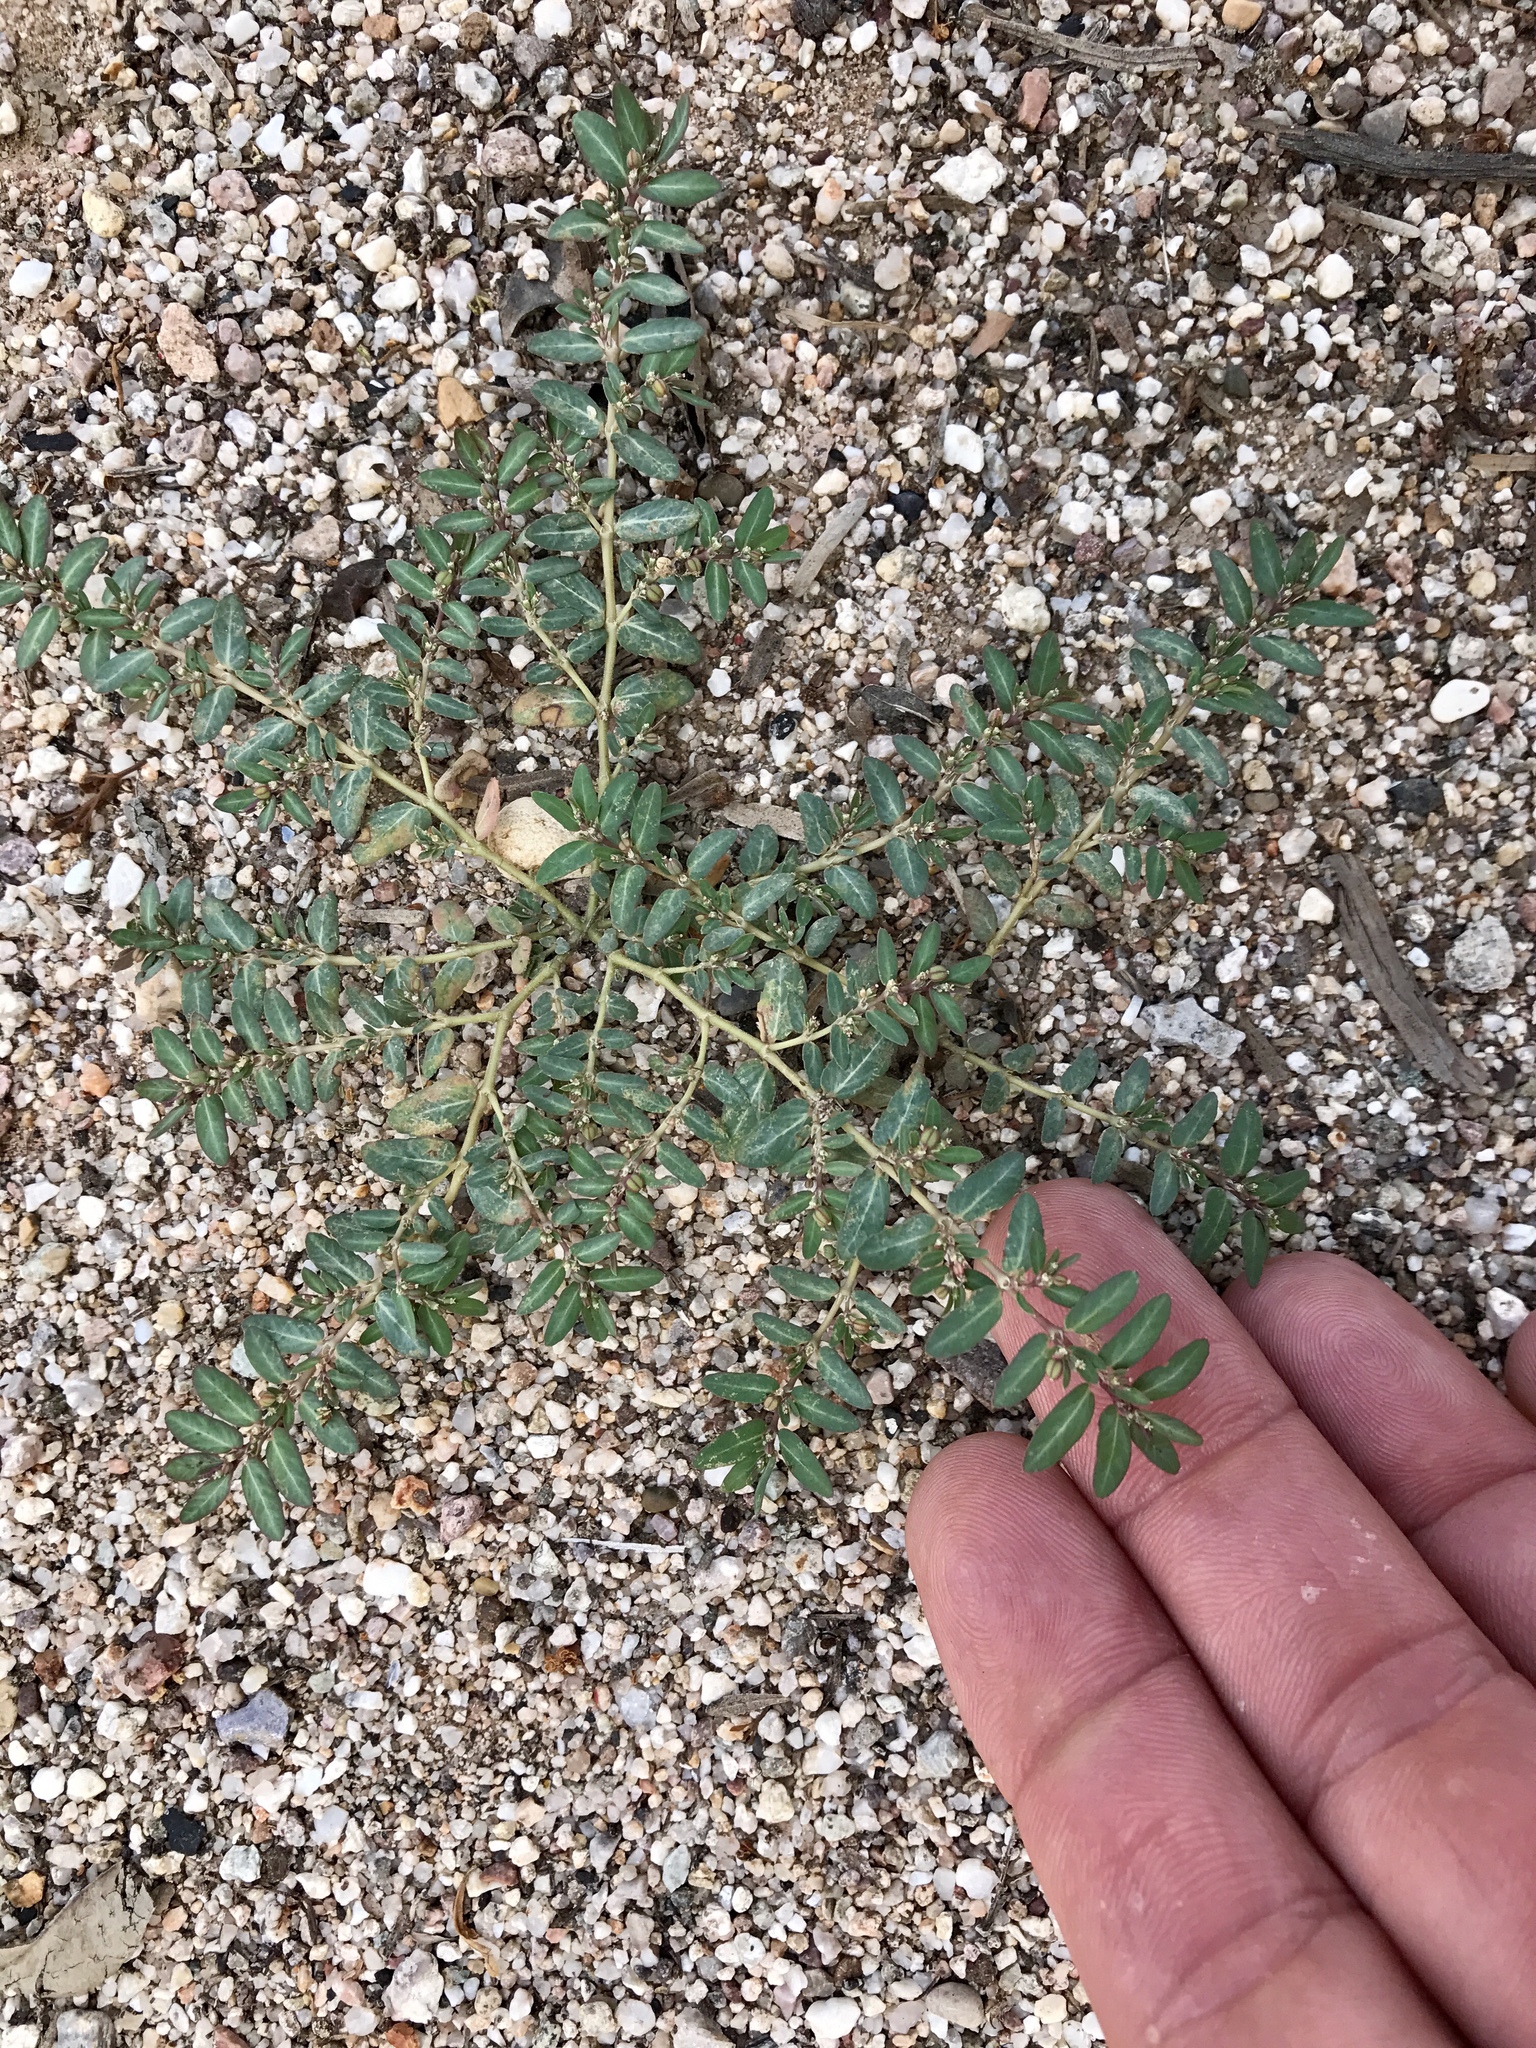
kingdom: Plantae
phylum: Tracheophyta
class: Magnoliopsida
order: Malpighiales
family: Euphorbiaceae
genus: Euphorbia
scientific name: Euphorbia abramsiana
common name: Abram's spurge
